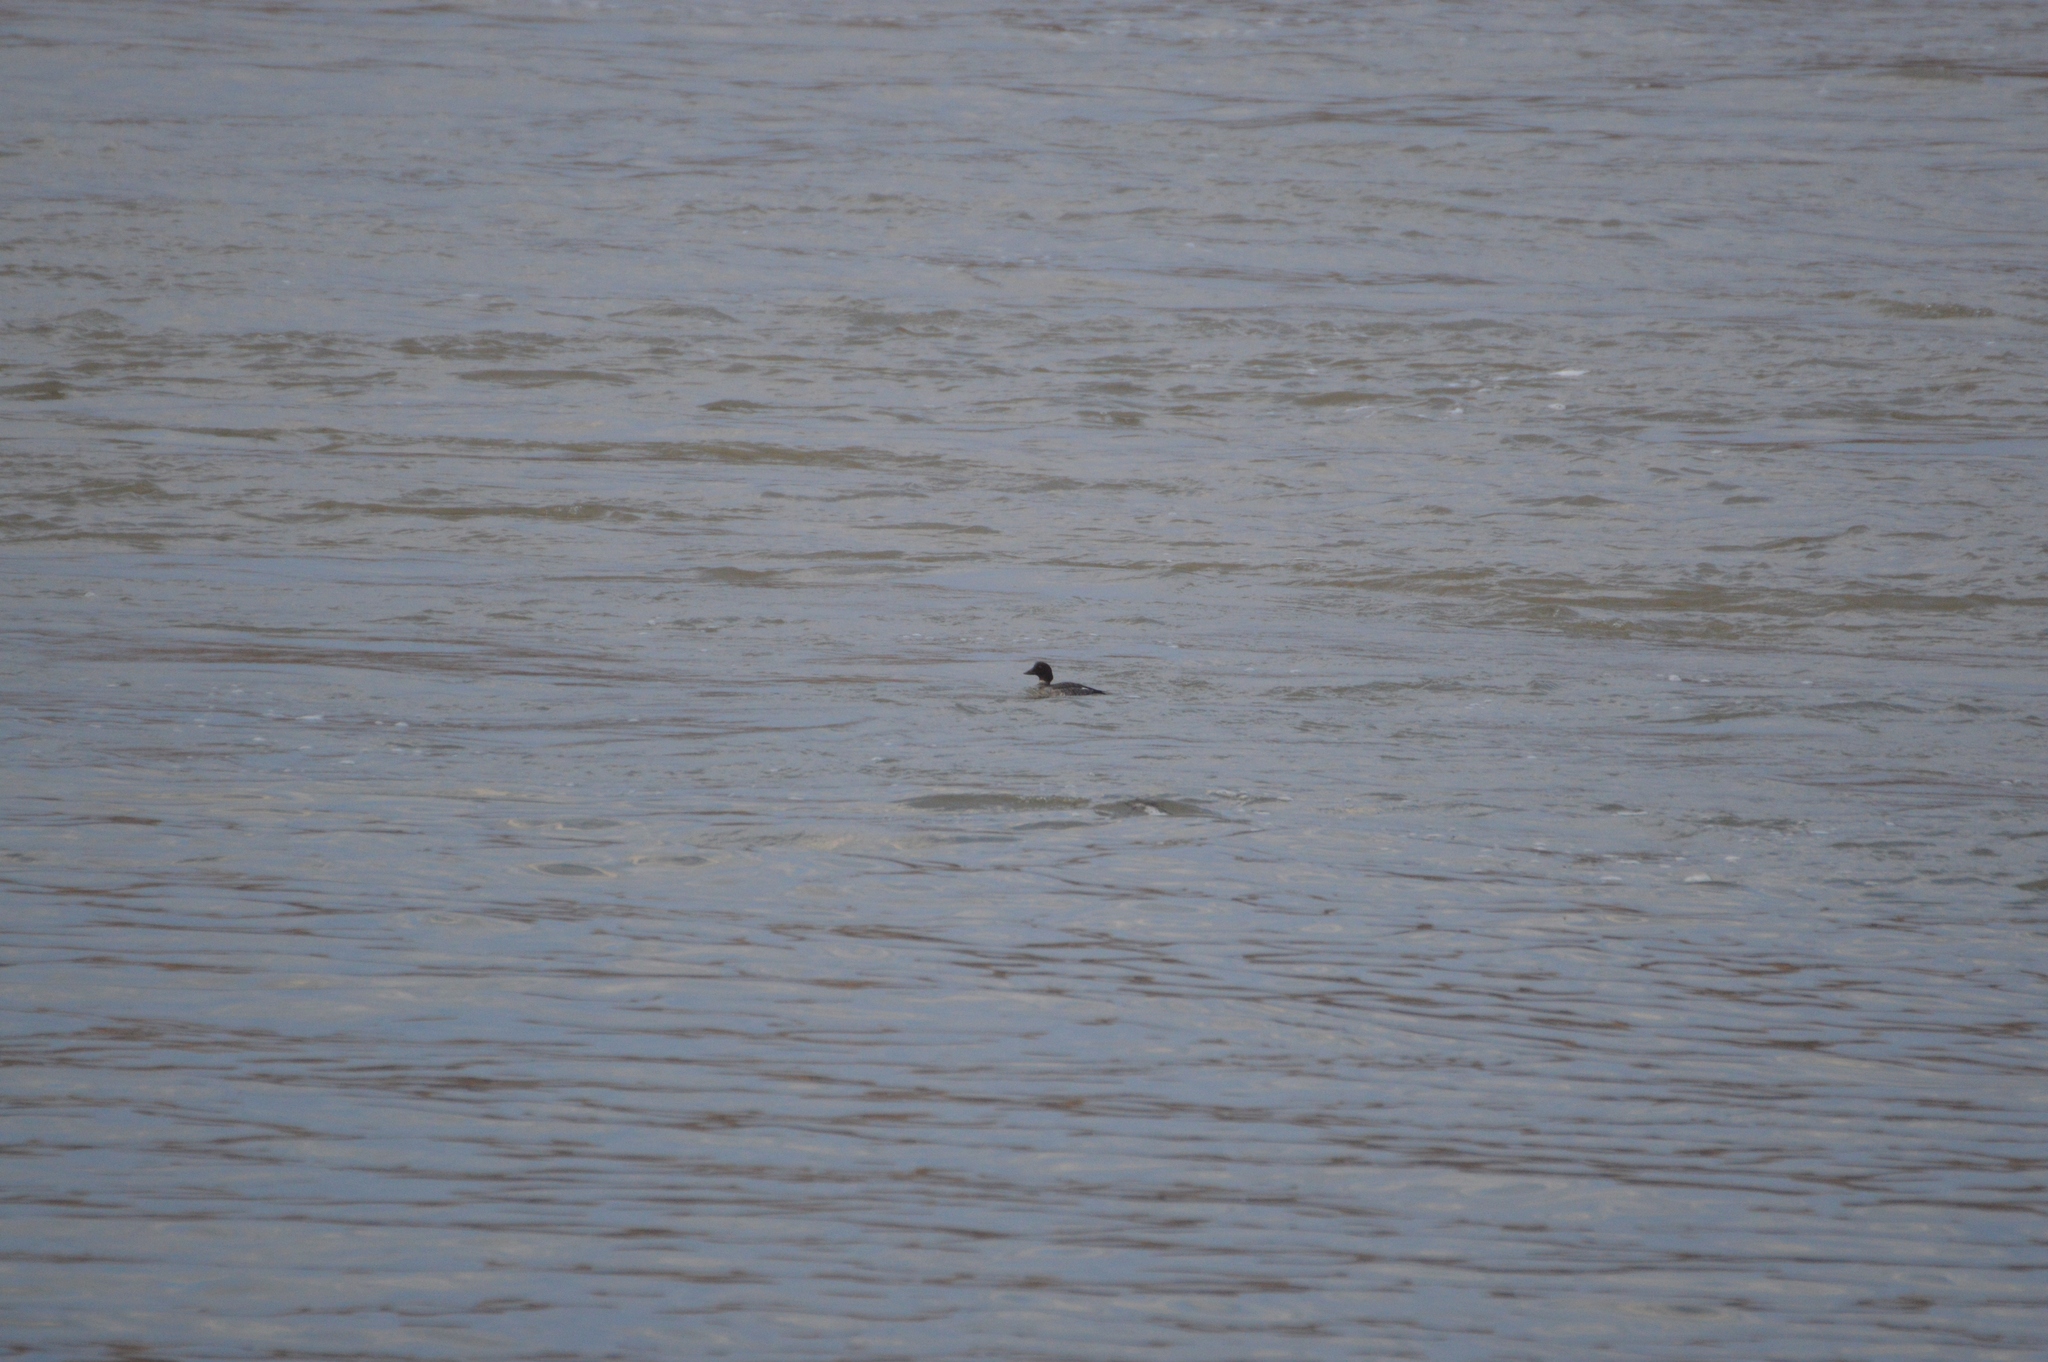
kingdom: Animalia
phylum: Chordata
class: Aves
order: Anseriformes
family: Anatidae
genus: Bucephala
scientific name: Bucephala clangula
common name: Common goldeneye
